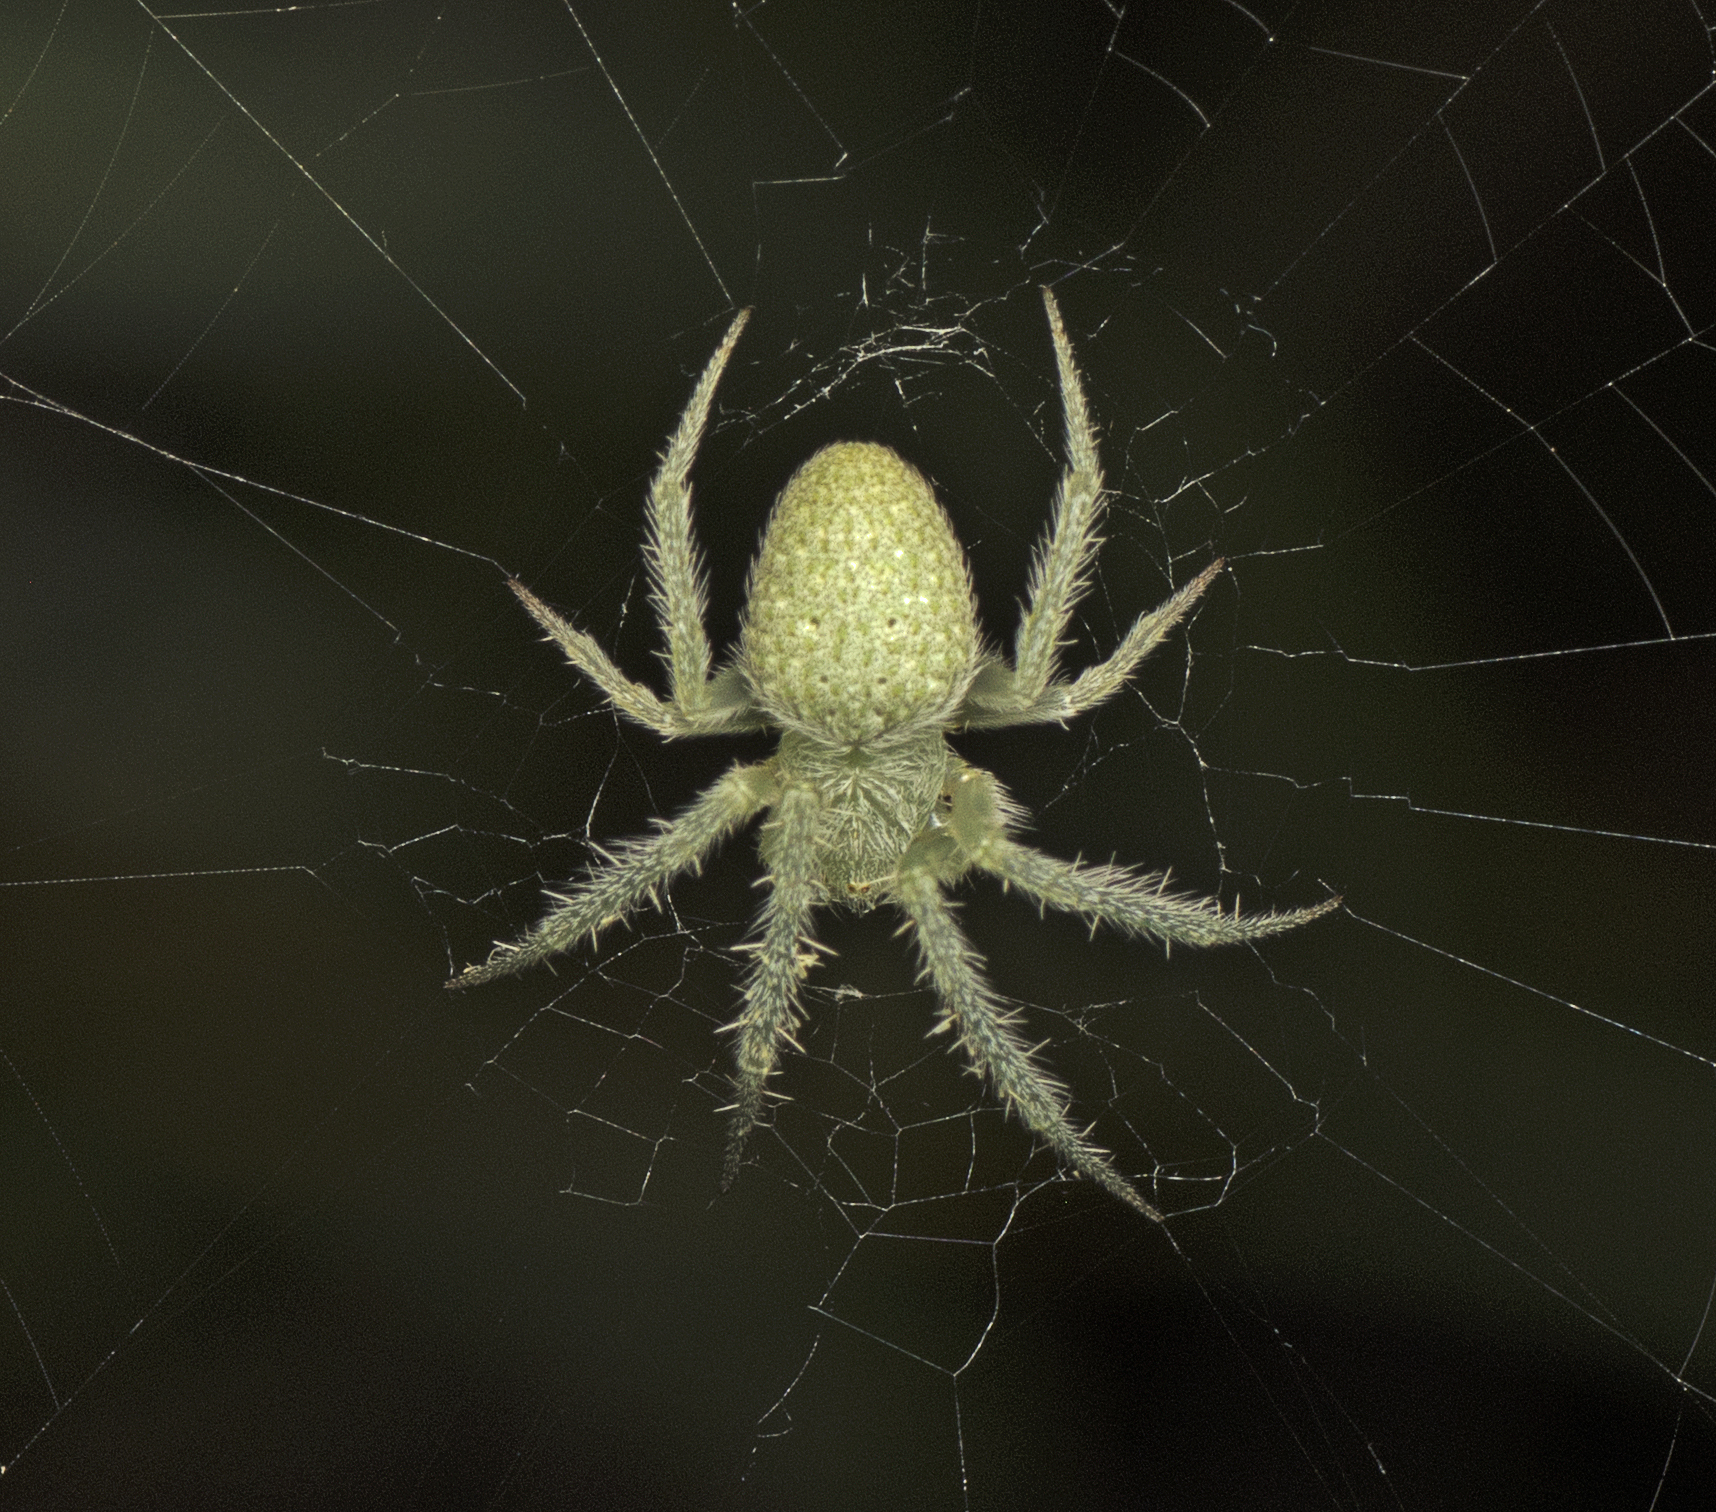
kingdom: Animalia
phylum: Arthropoda
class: Arachnida
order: Araneae
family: Araneidae
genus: Araneus
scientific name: Araneus circulissparsus
